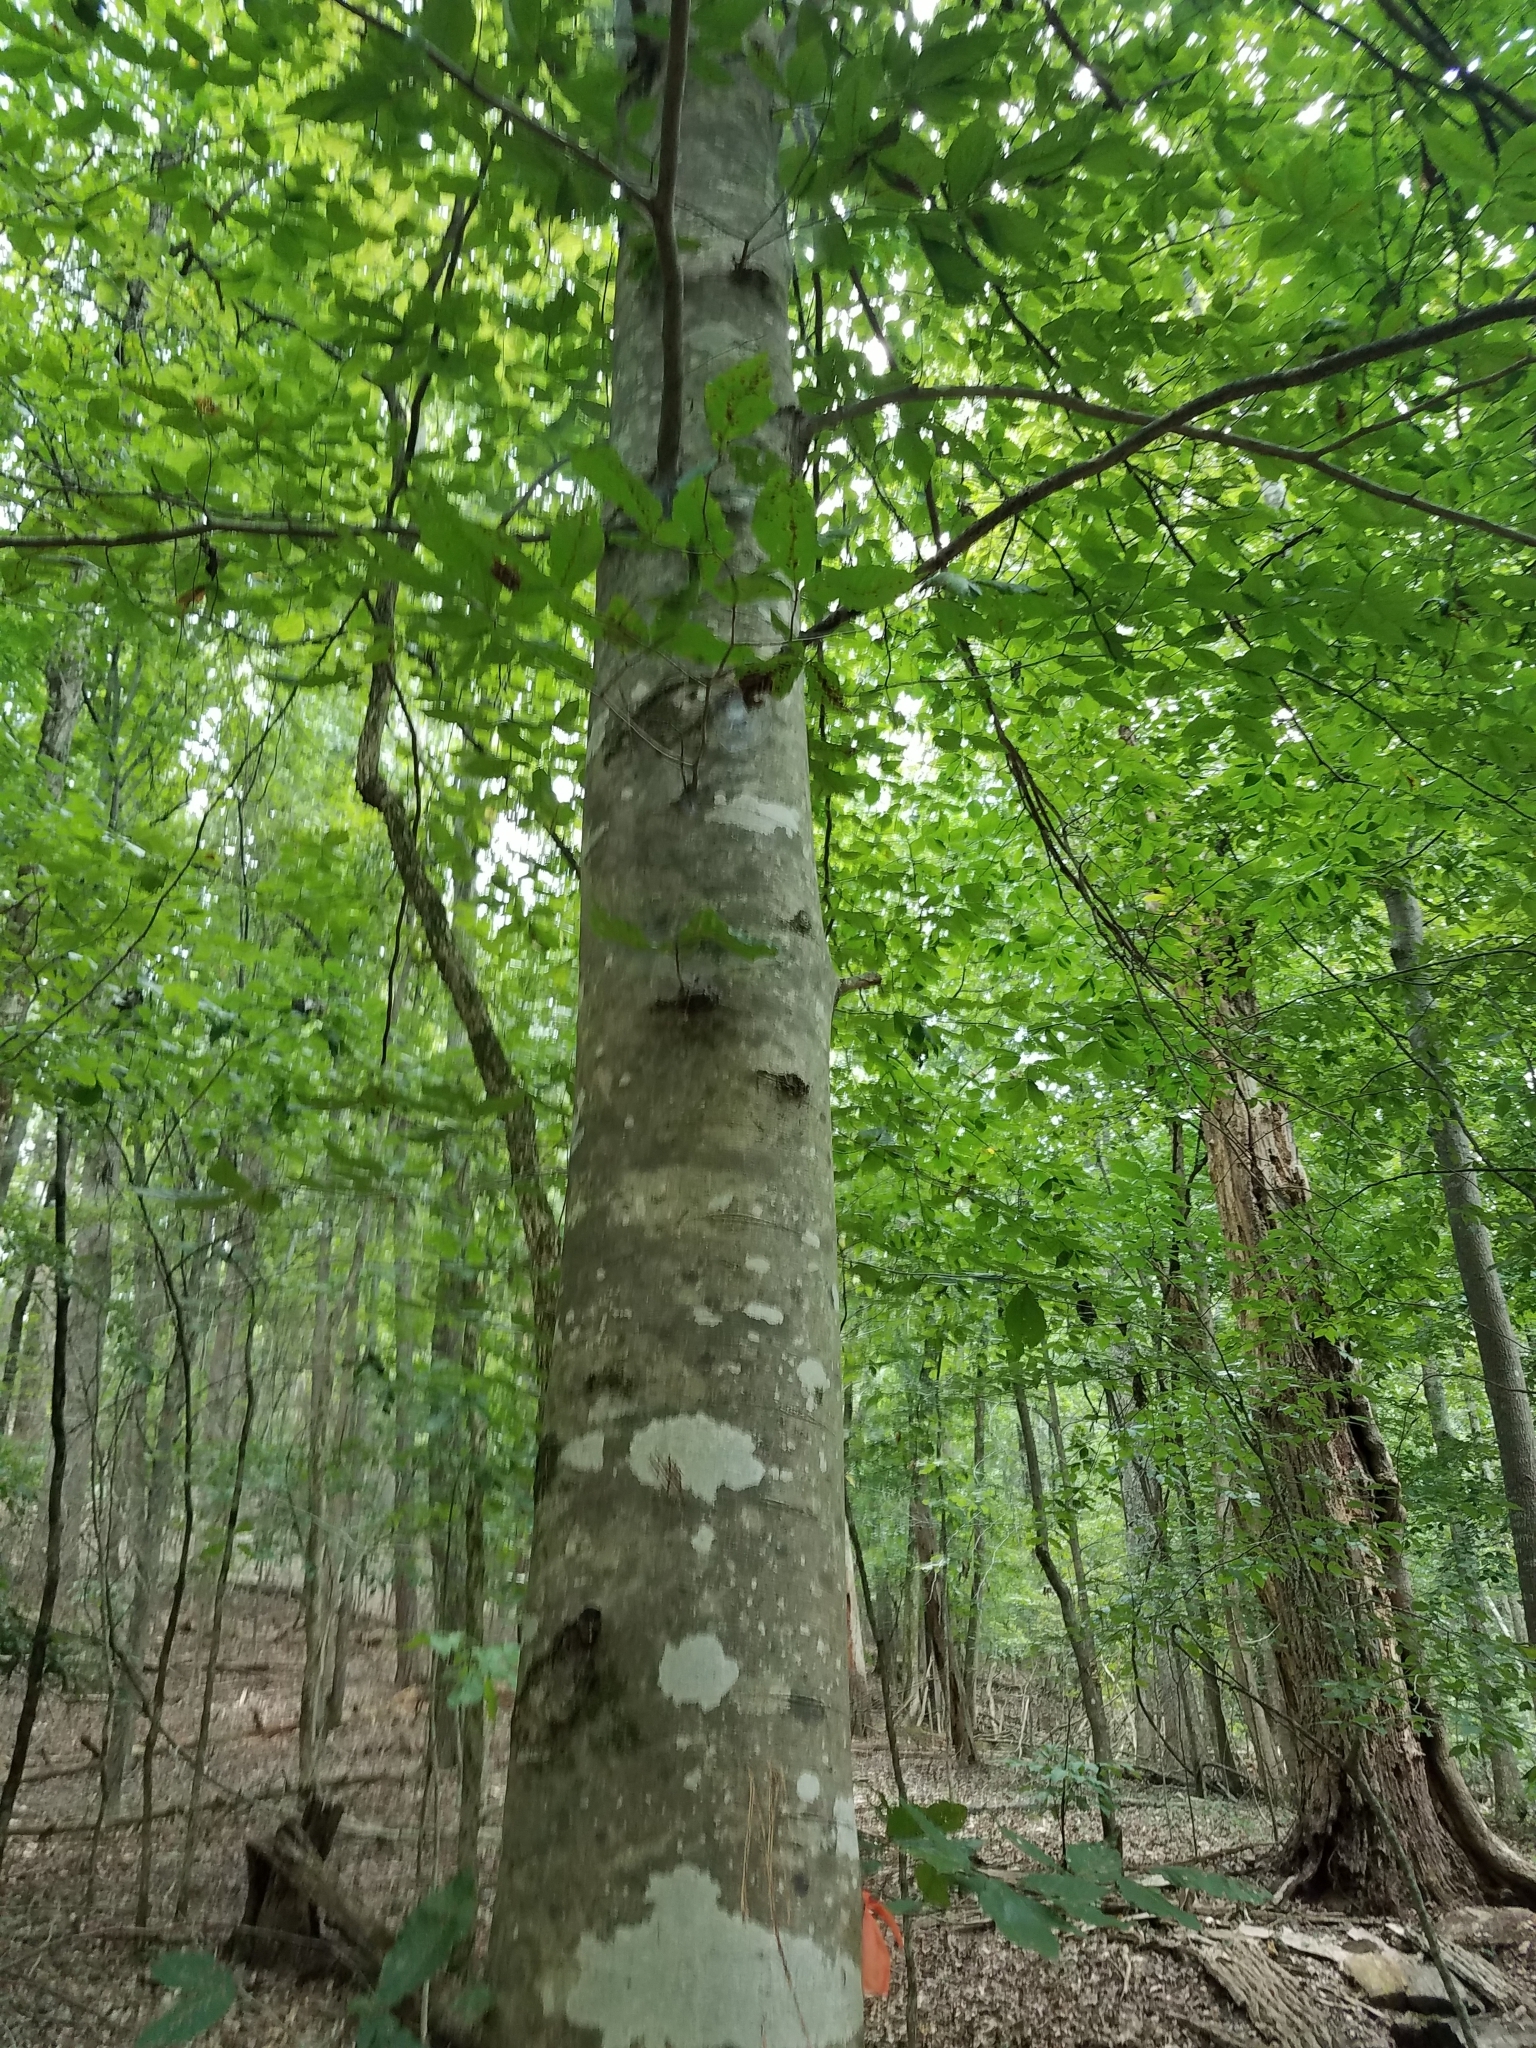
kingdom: Plantae
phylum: Tracheophyta
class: Magnoliopsida
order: Fagales
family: Fagaceae
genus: Fagus
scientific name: Fagus grandifolia
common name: American beech
